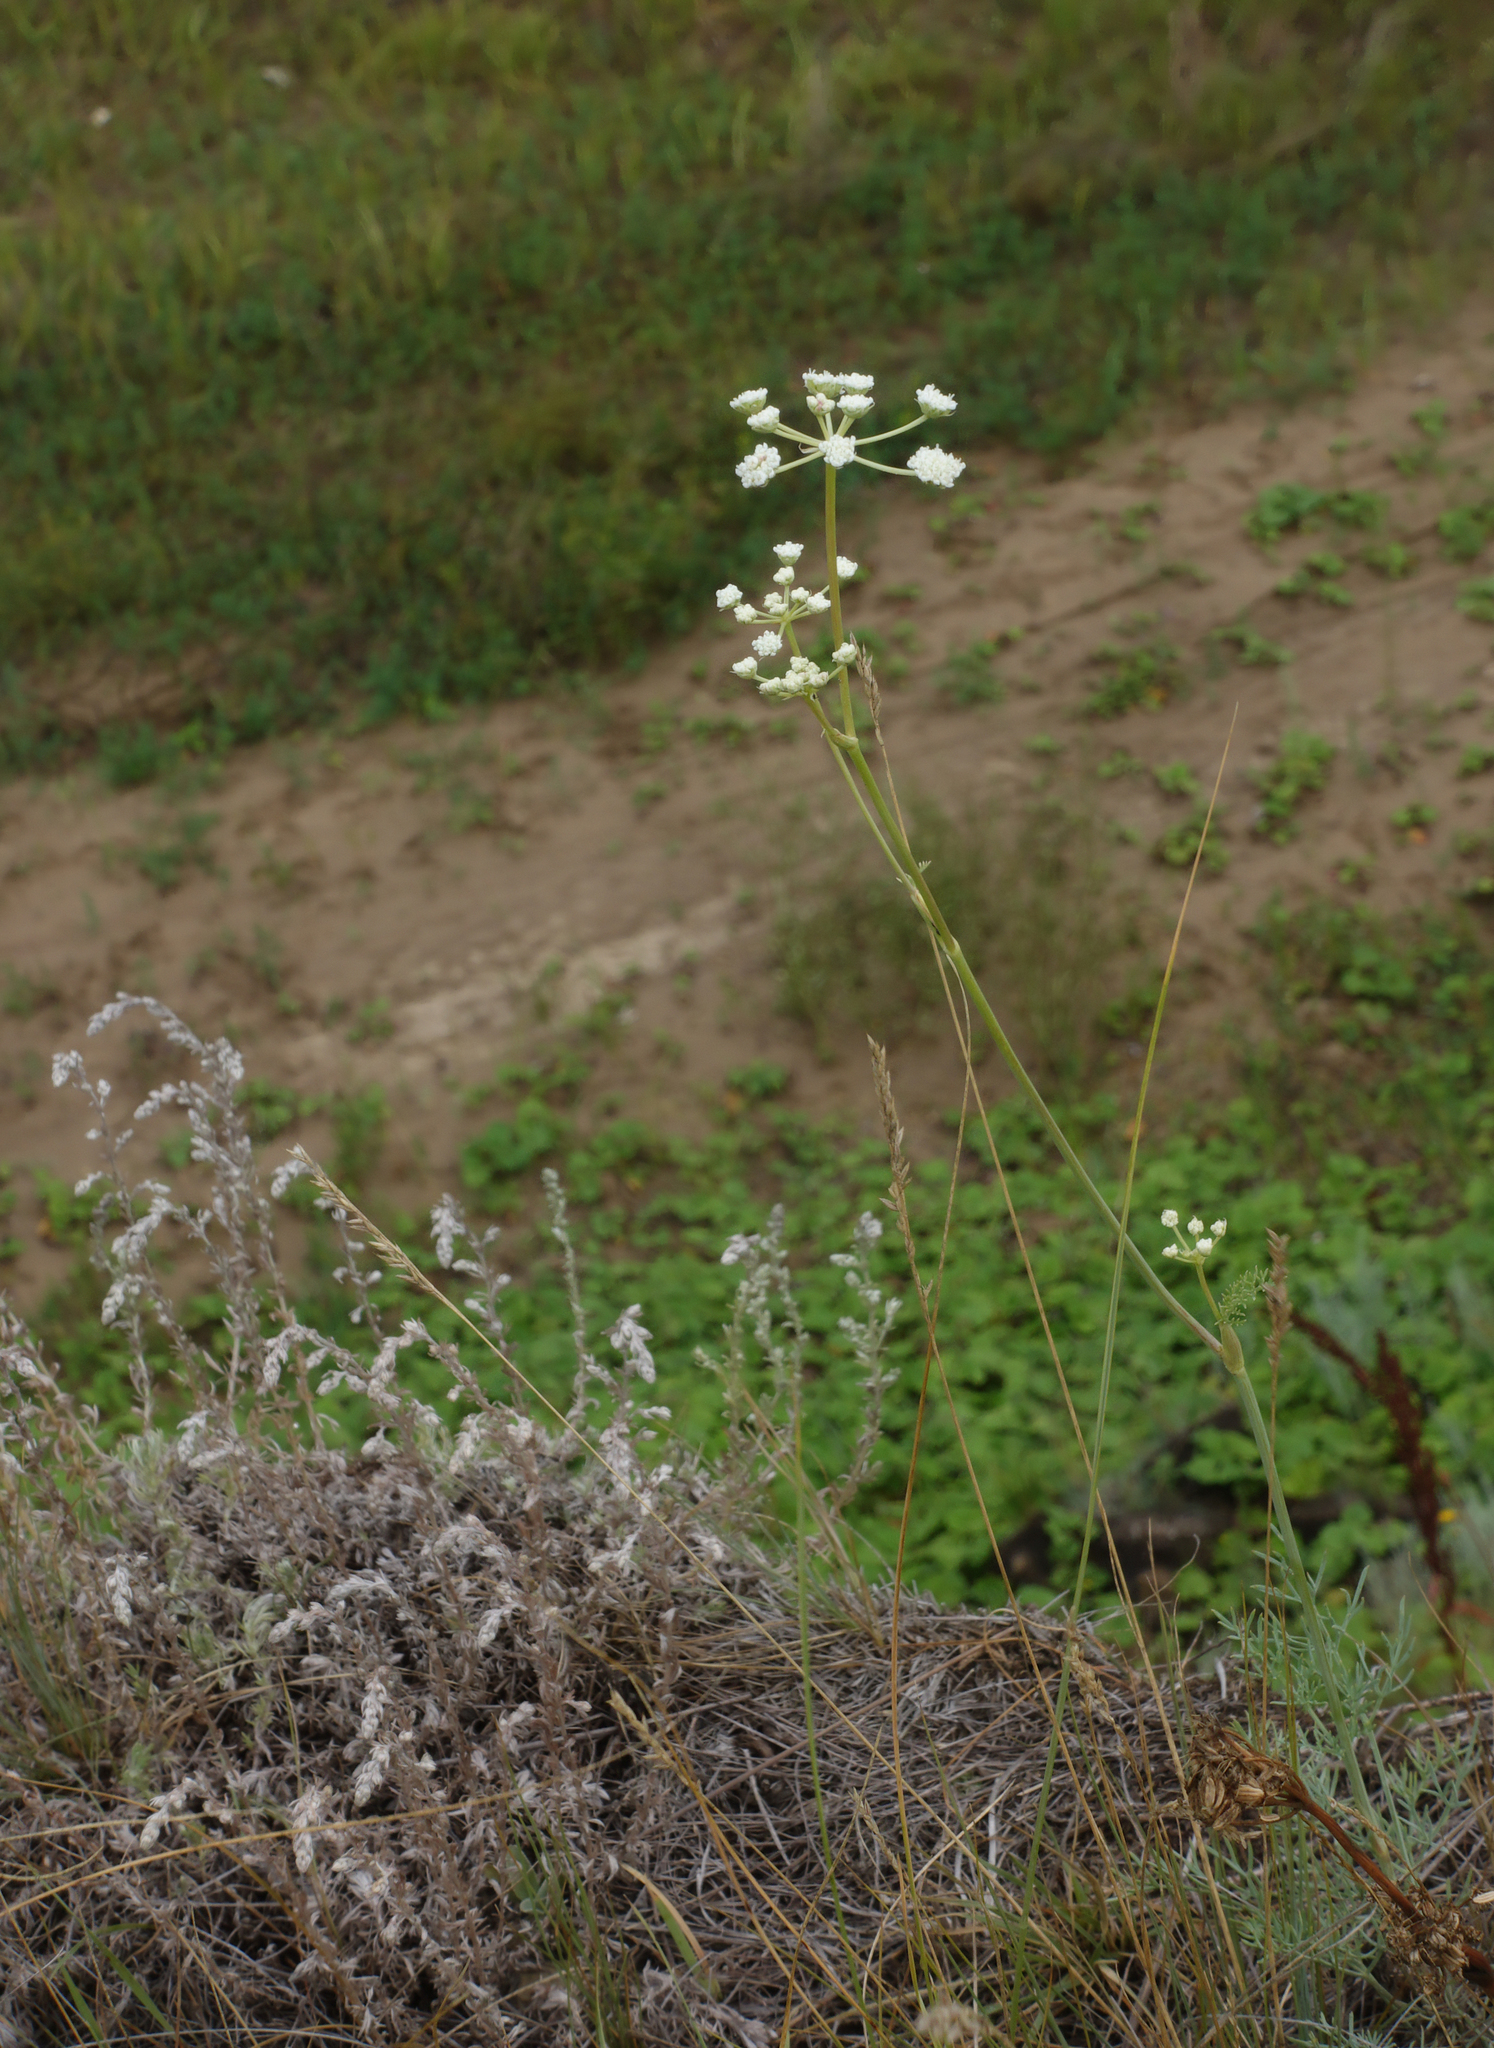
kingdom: Plantae
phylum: Tracheophyta
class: Magnoliopsida
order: Apiales
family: Apiaceae
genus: Seseli
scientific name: Seseli ledebourii
